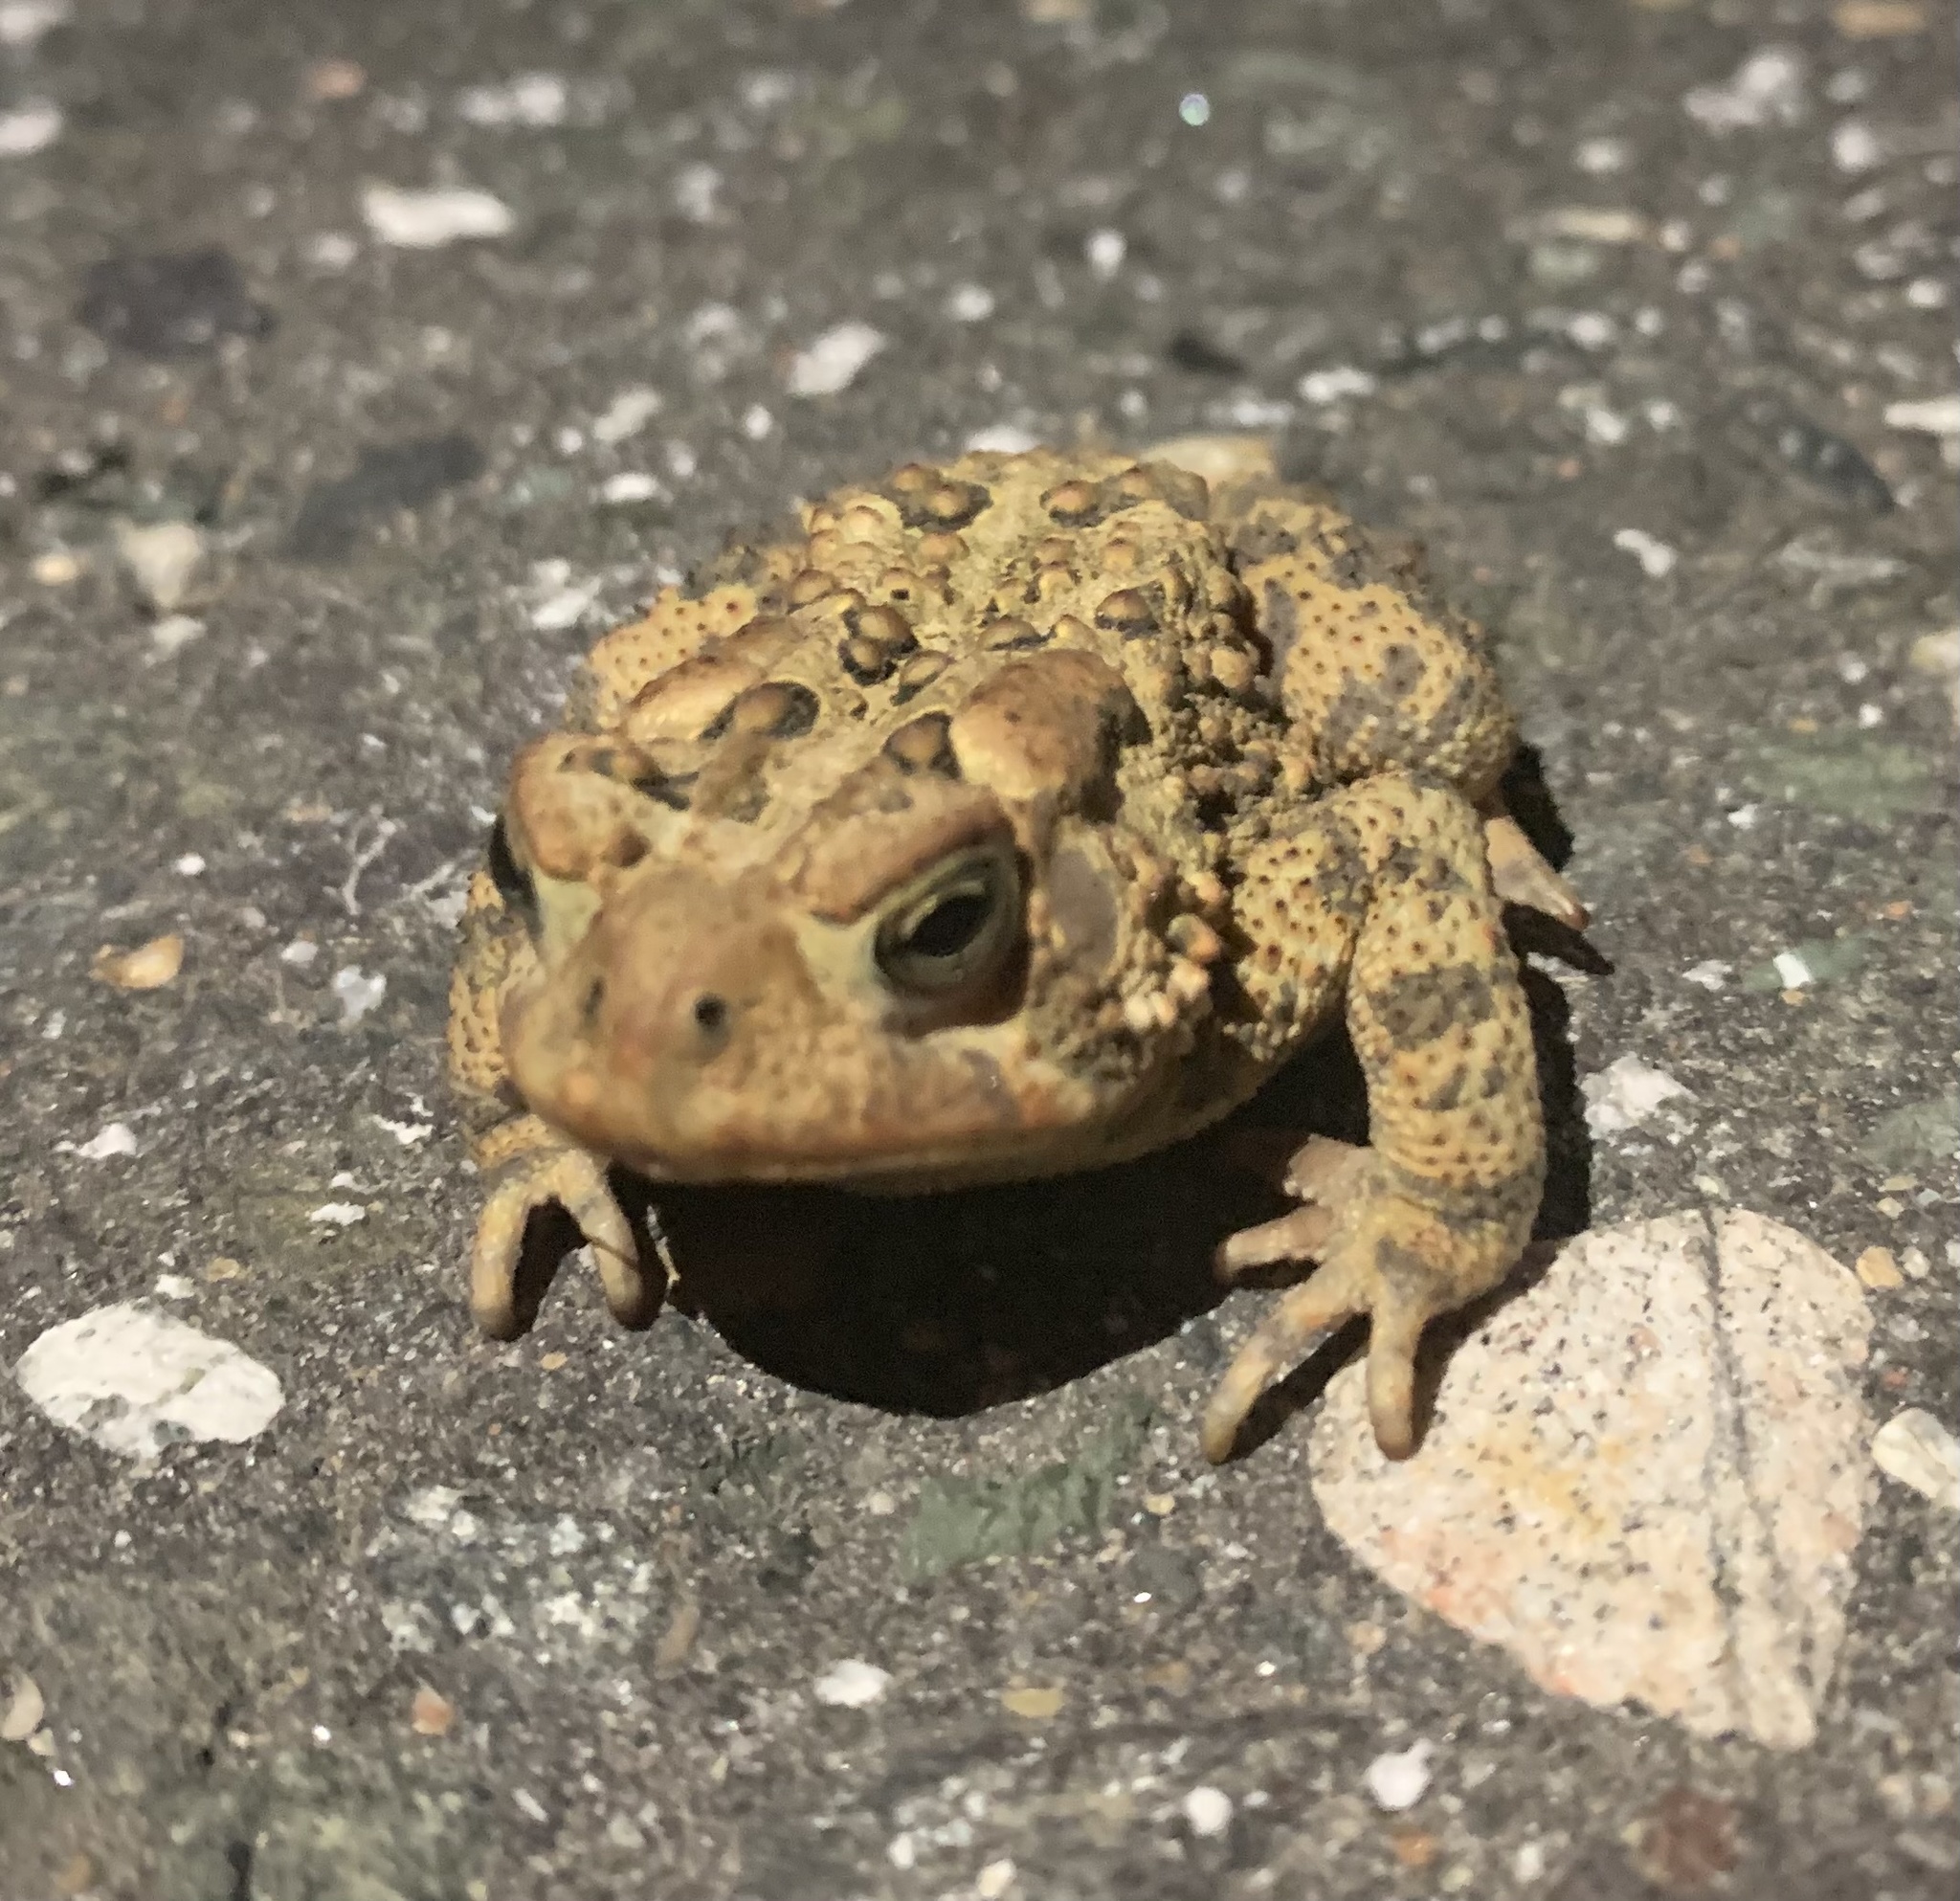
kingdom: Animalia
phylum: Chordata
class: Amphibia
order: Anura
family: Bufonidae
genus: Anaxyrus
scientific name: Anaxyrus americanus
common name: American toad
